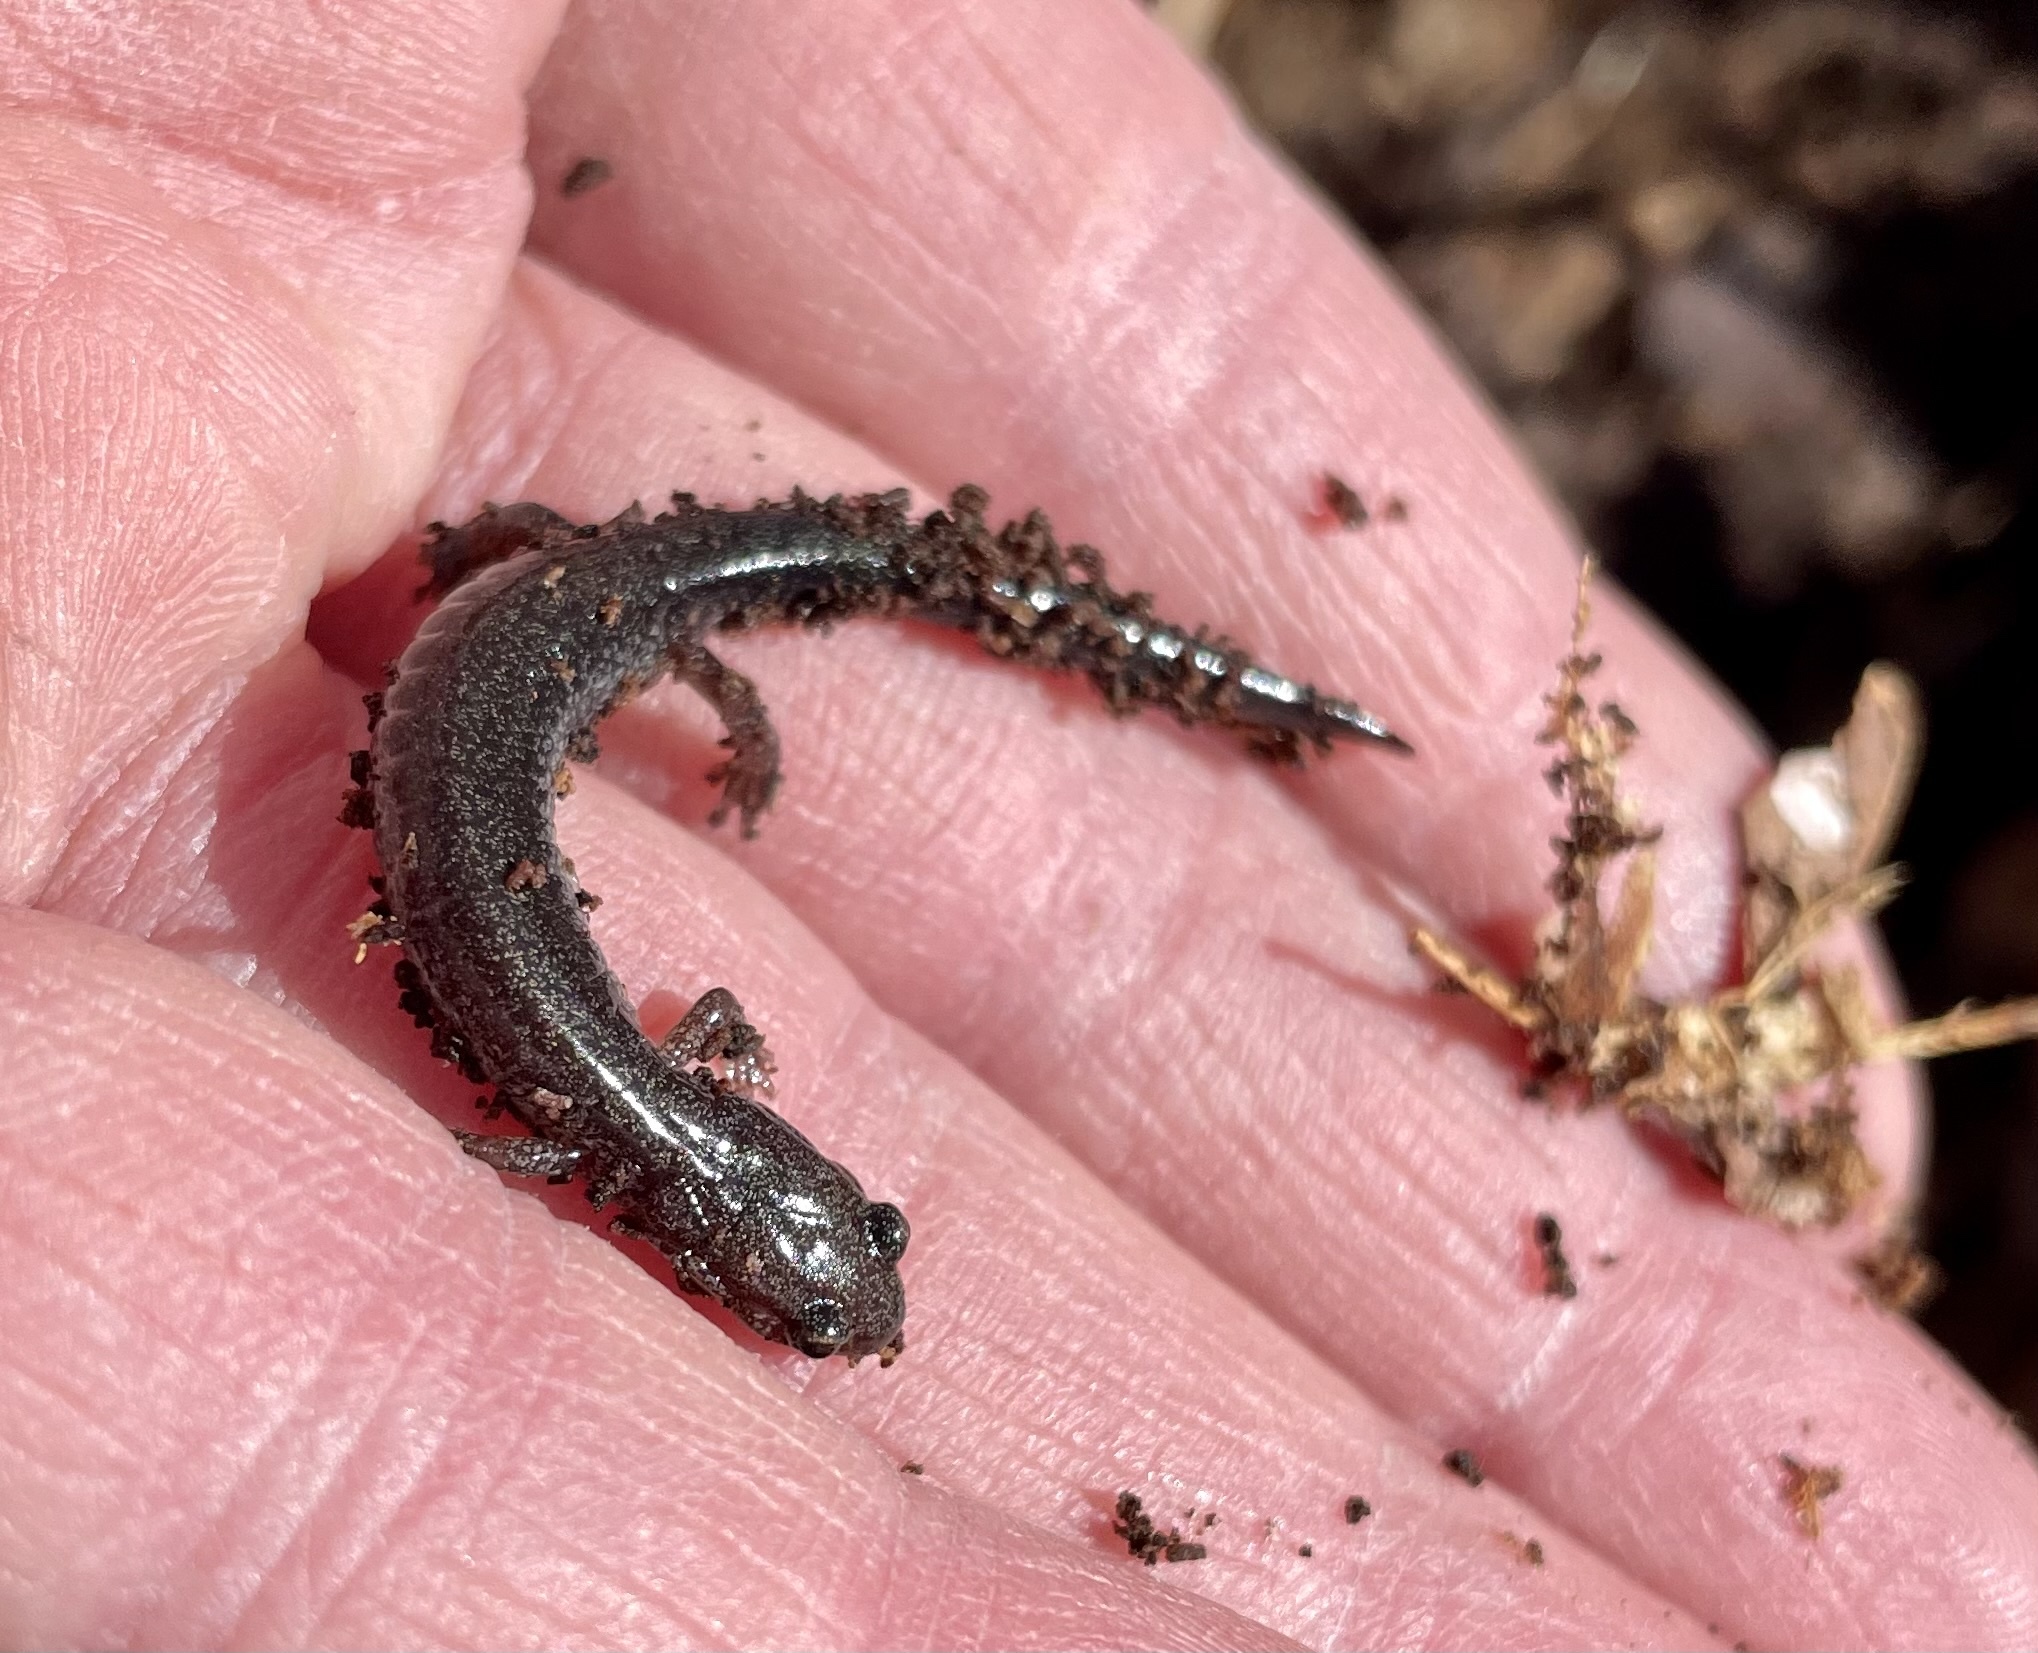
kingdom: Animalia
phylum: Chordata
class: Amphibia
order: Caudata
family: Plethodontidae
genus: Plethodon
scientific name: Plethodon cinereus
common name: Redback salamander
